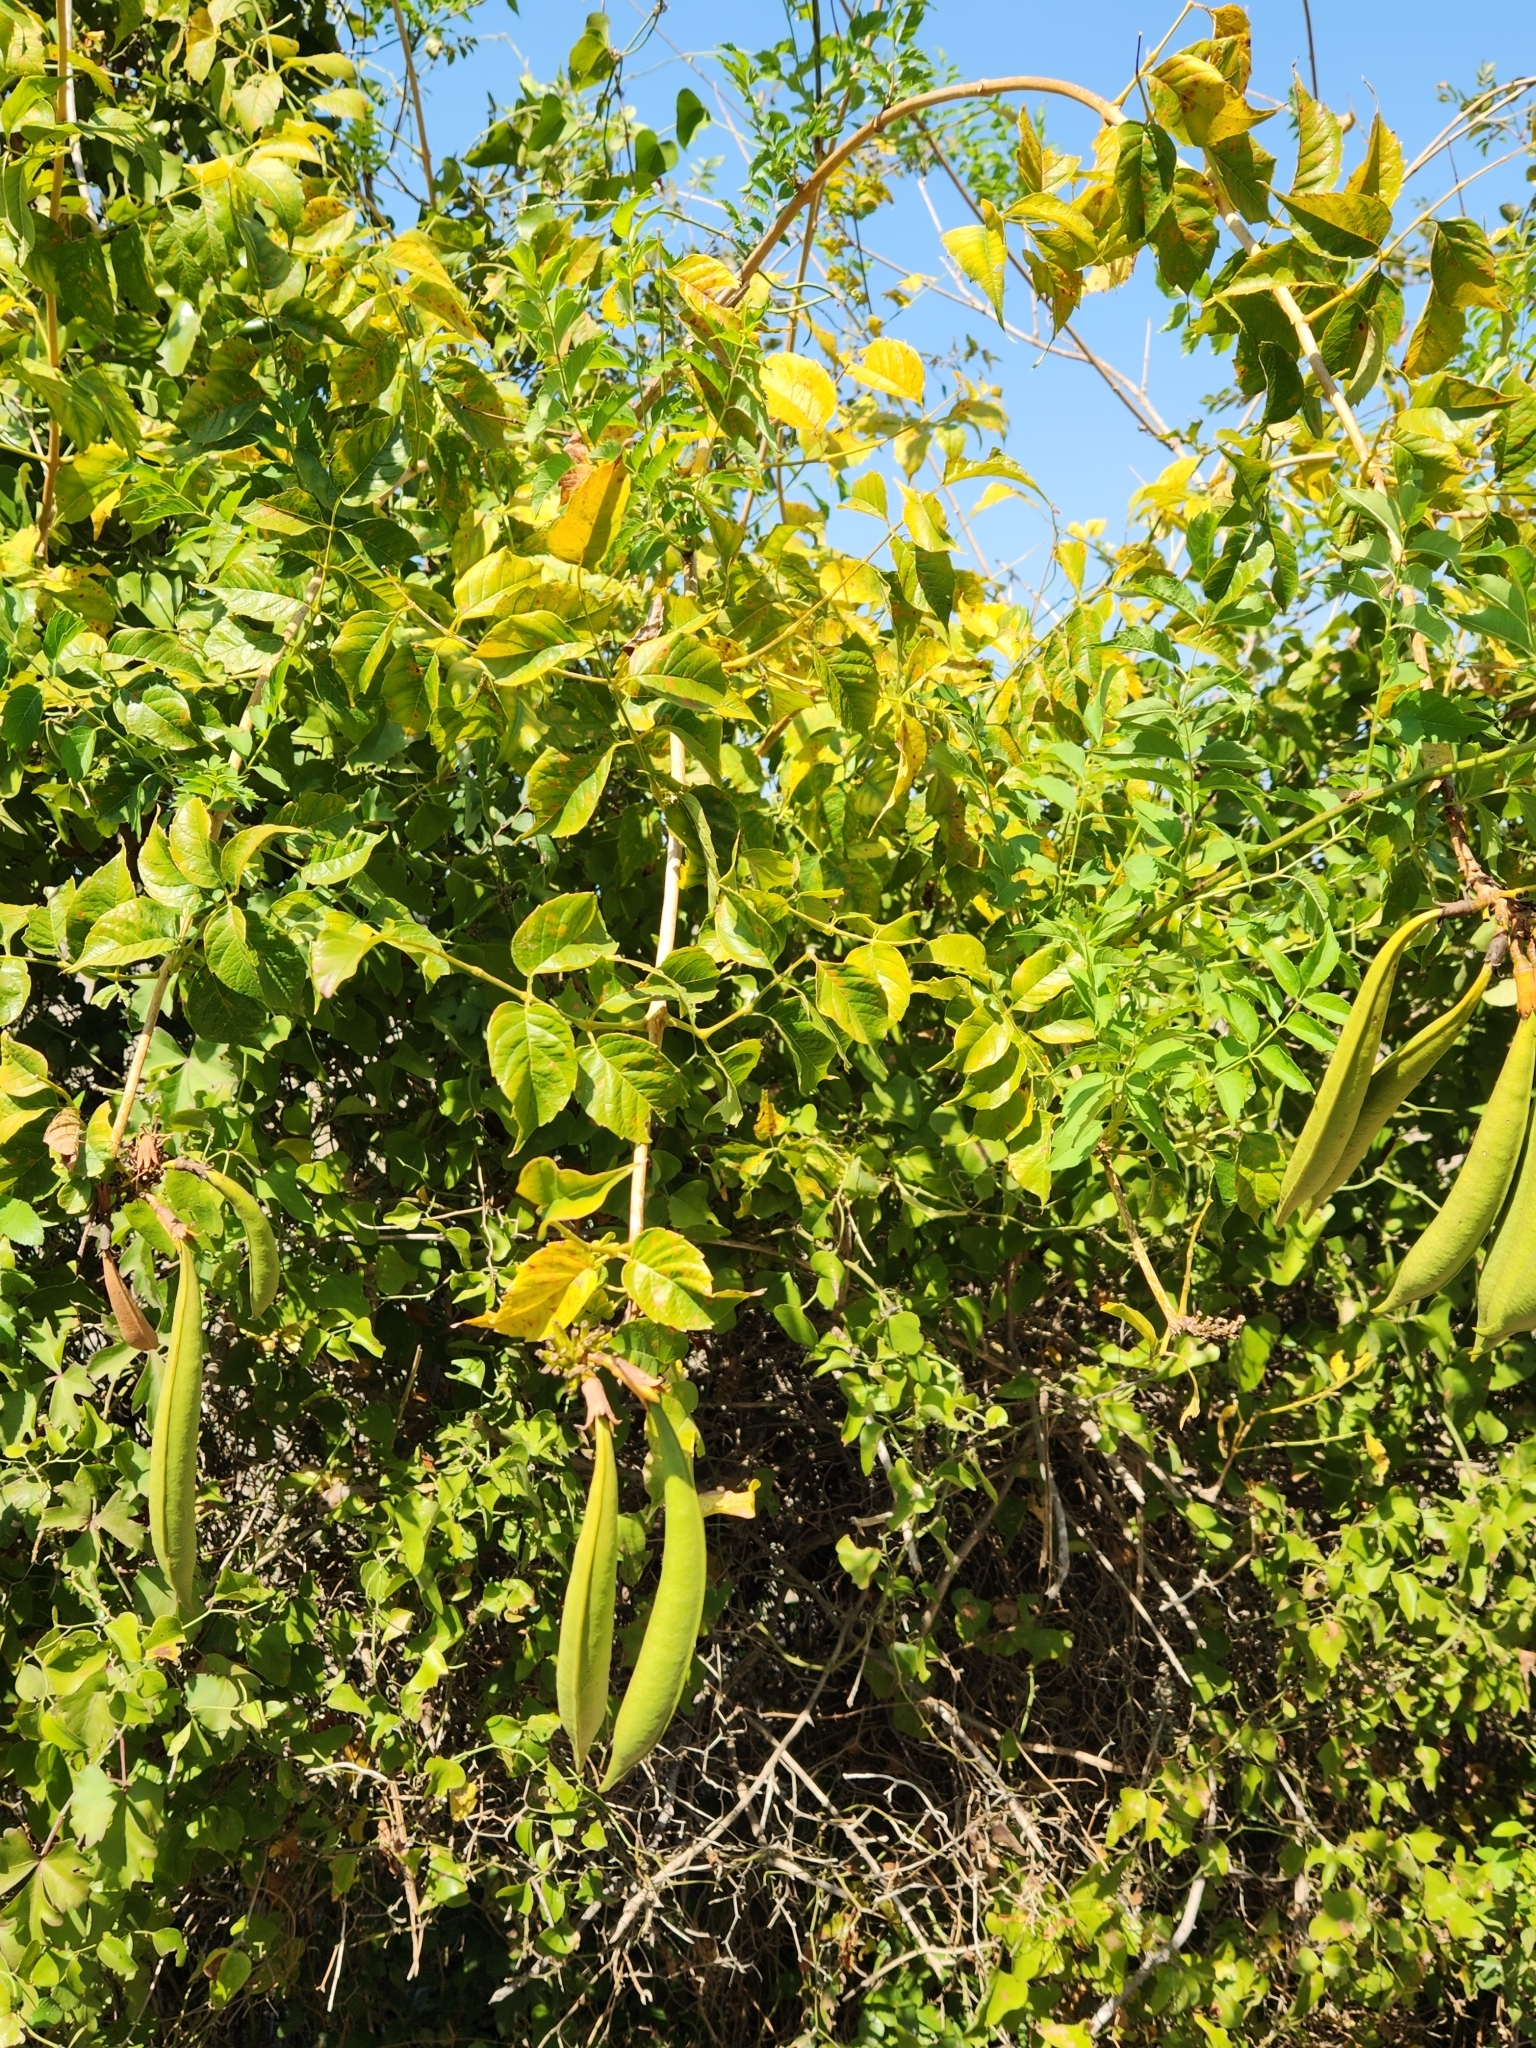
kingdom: Plantae
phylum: Tracheophyta
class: Magnoliopsida
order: Lamiales
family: Bignoniaceae
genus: Campsis
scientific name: Campsis radicans
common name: Trumpet-creeper
